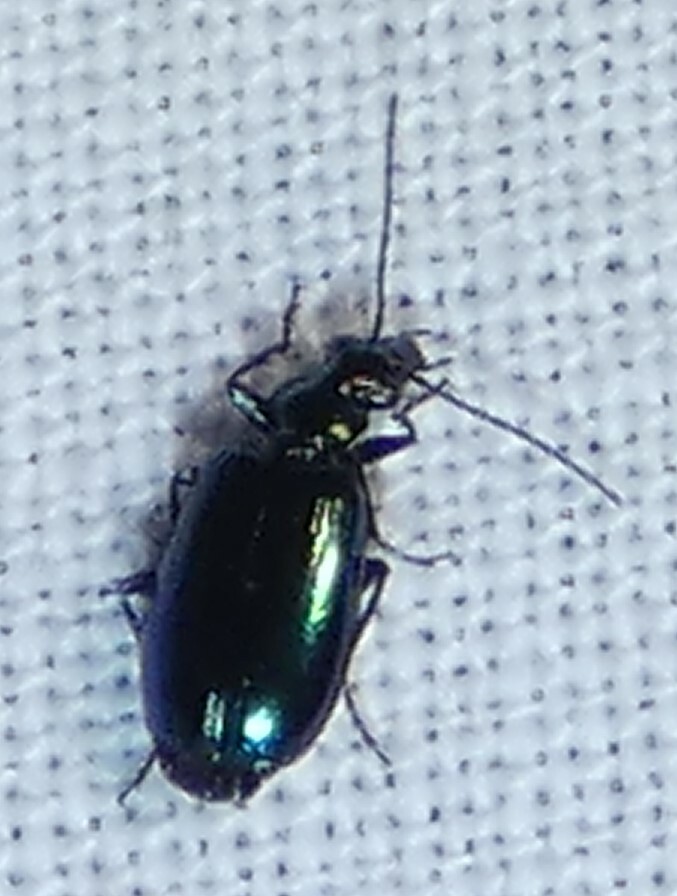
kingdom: Animalia
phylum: Arthropoda
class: Insecta
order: Coleoptera
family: Carabidae
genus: Lebia
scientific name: Lebia viridis
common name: Flower lebia beetle
